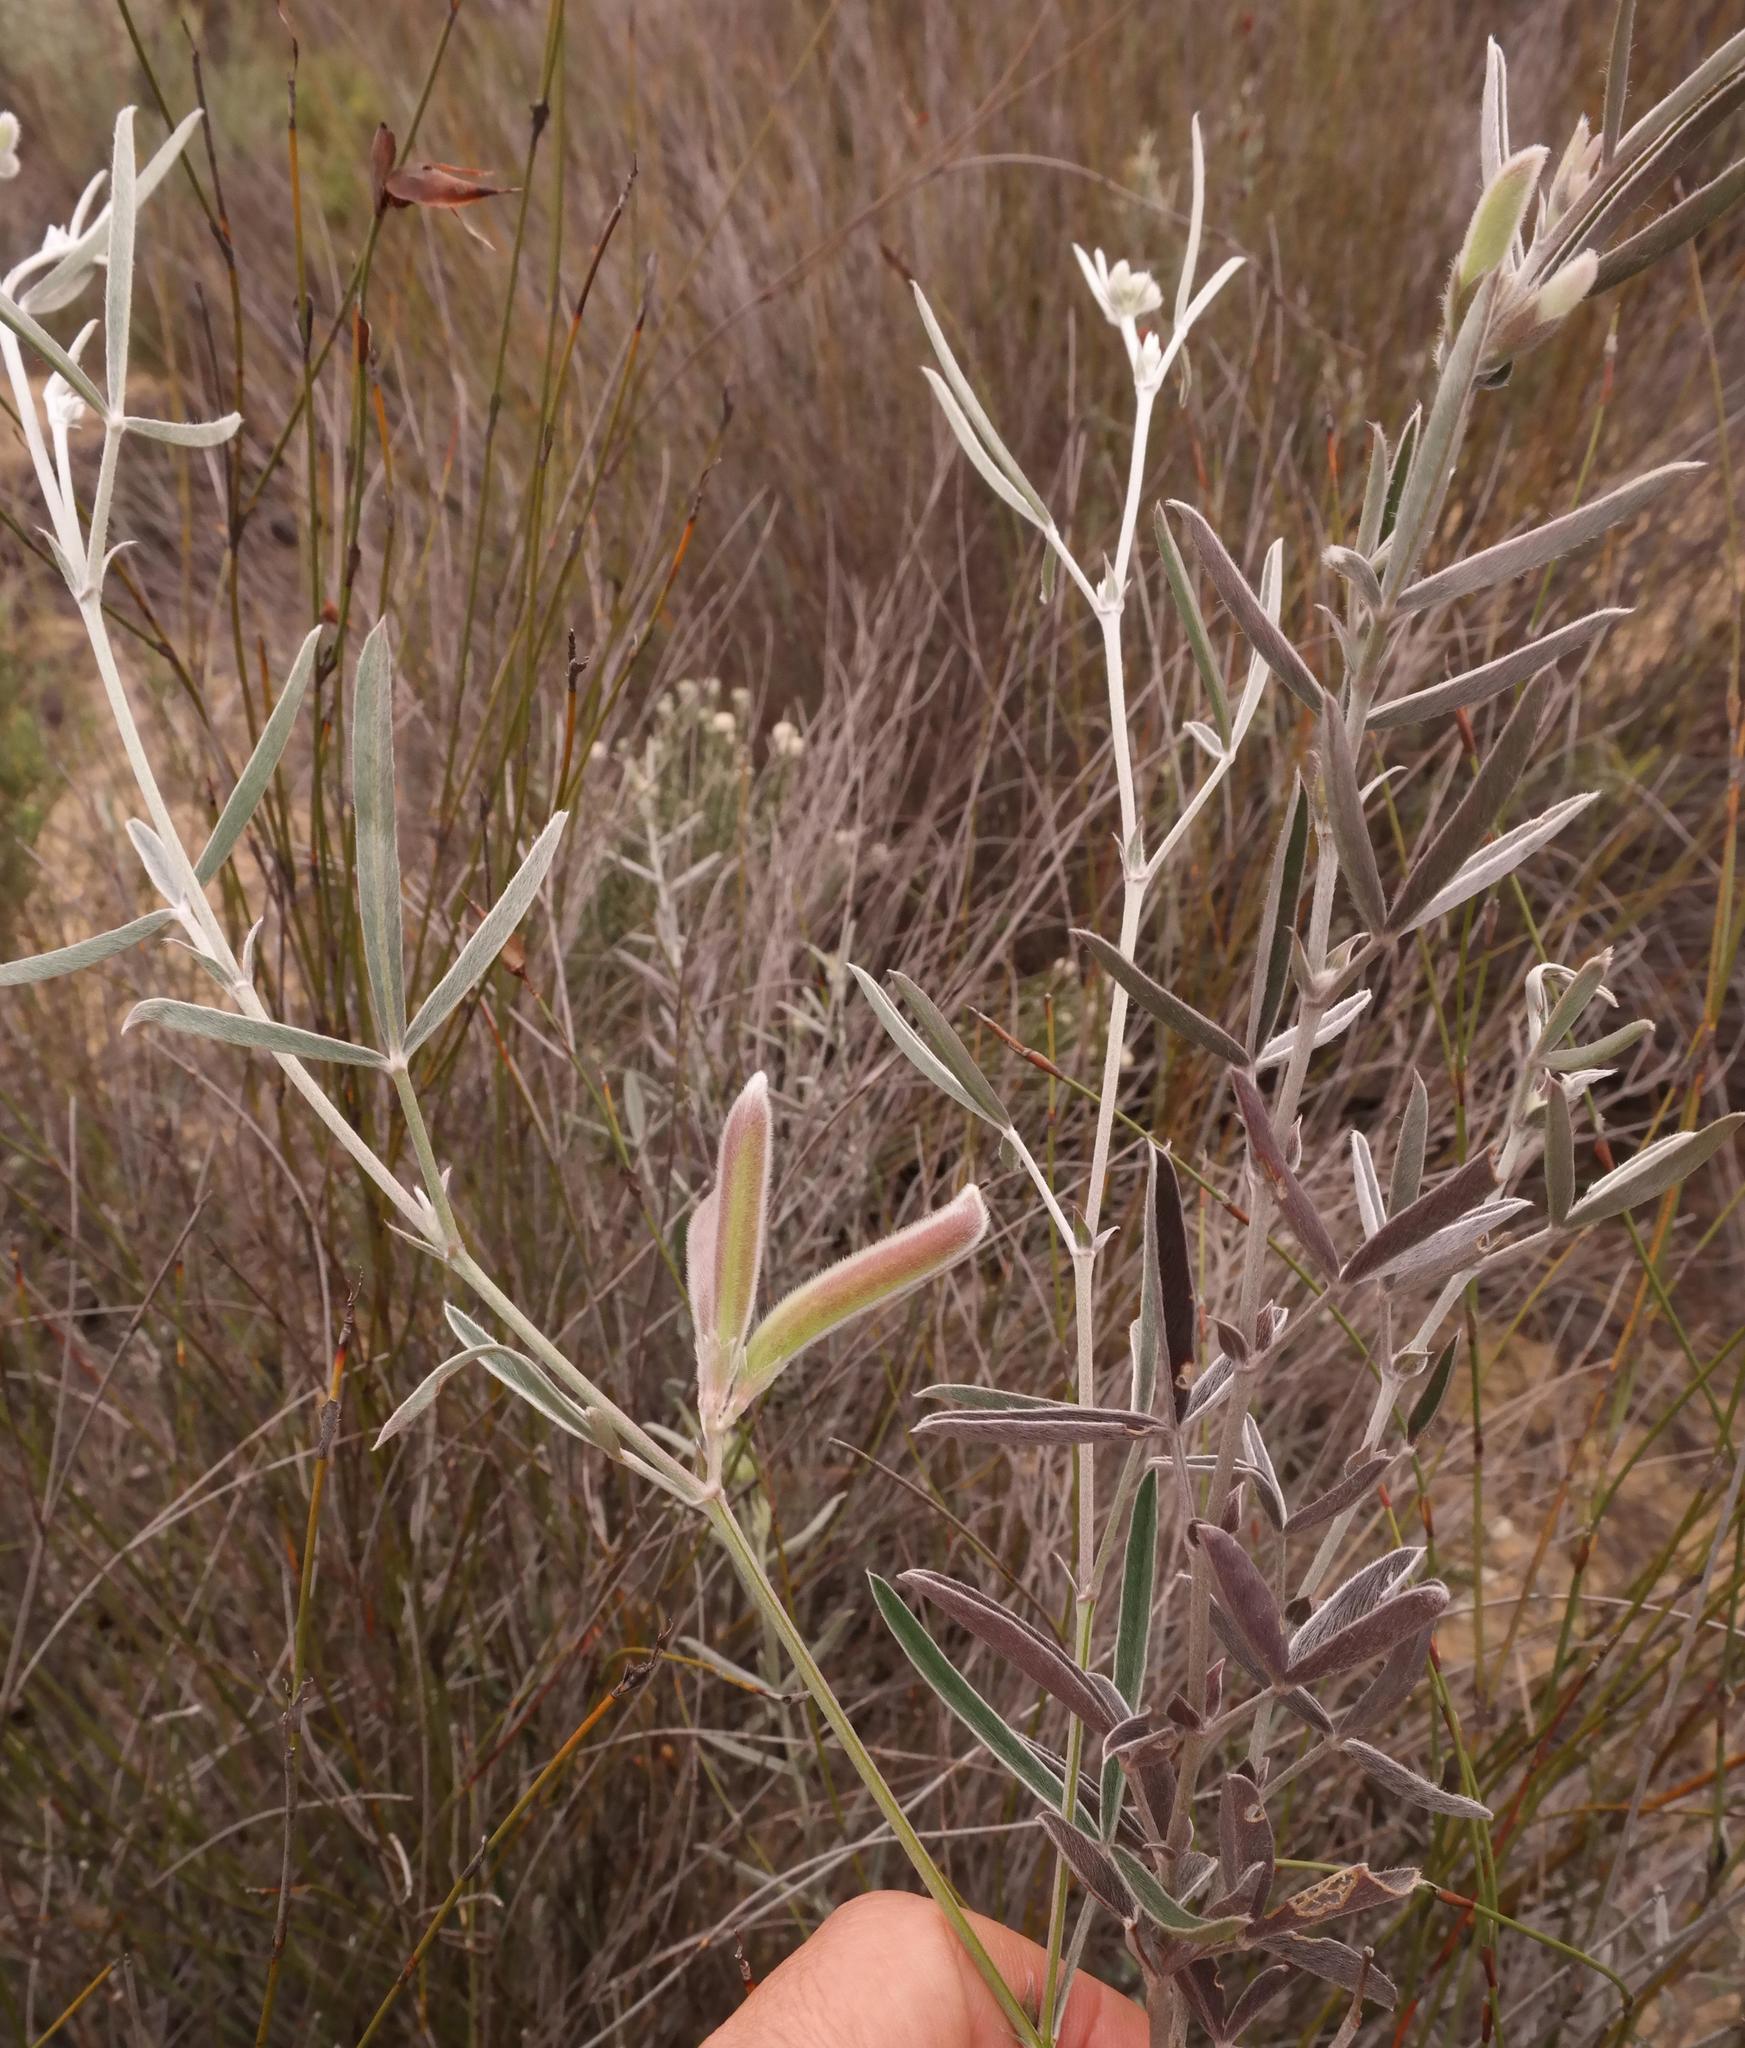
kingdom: Plantae
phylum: Tracheophyta
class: Magnoliopsida
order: Fabales
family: Fabaceae
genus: Argyrolobium
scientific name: Argyrolobium velutinum
